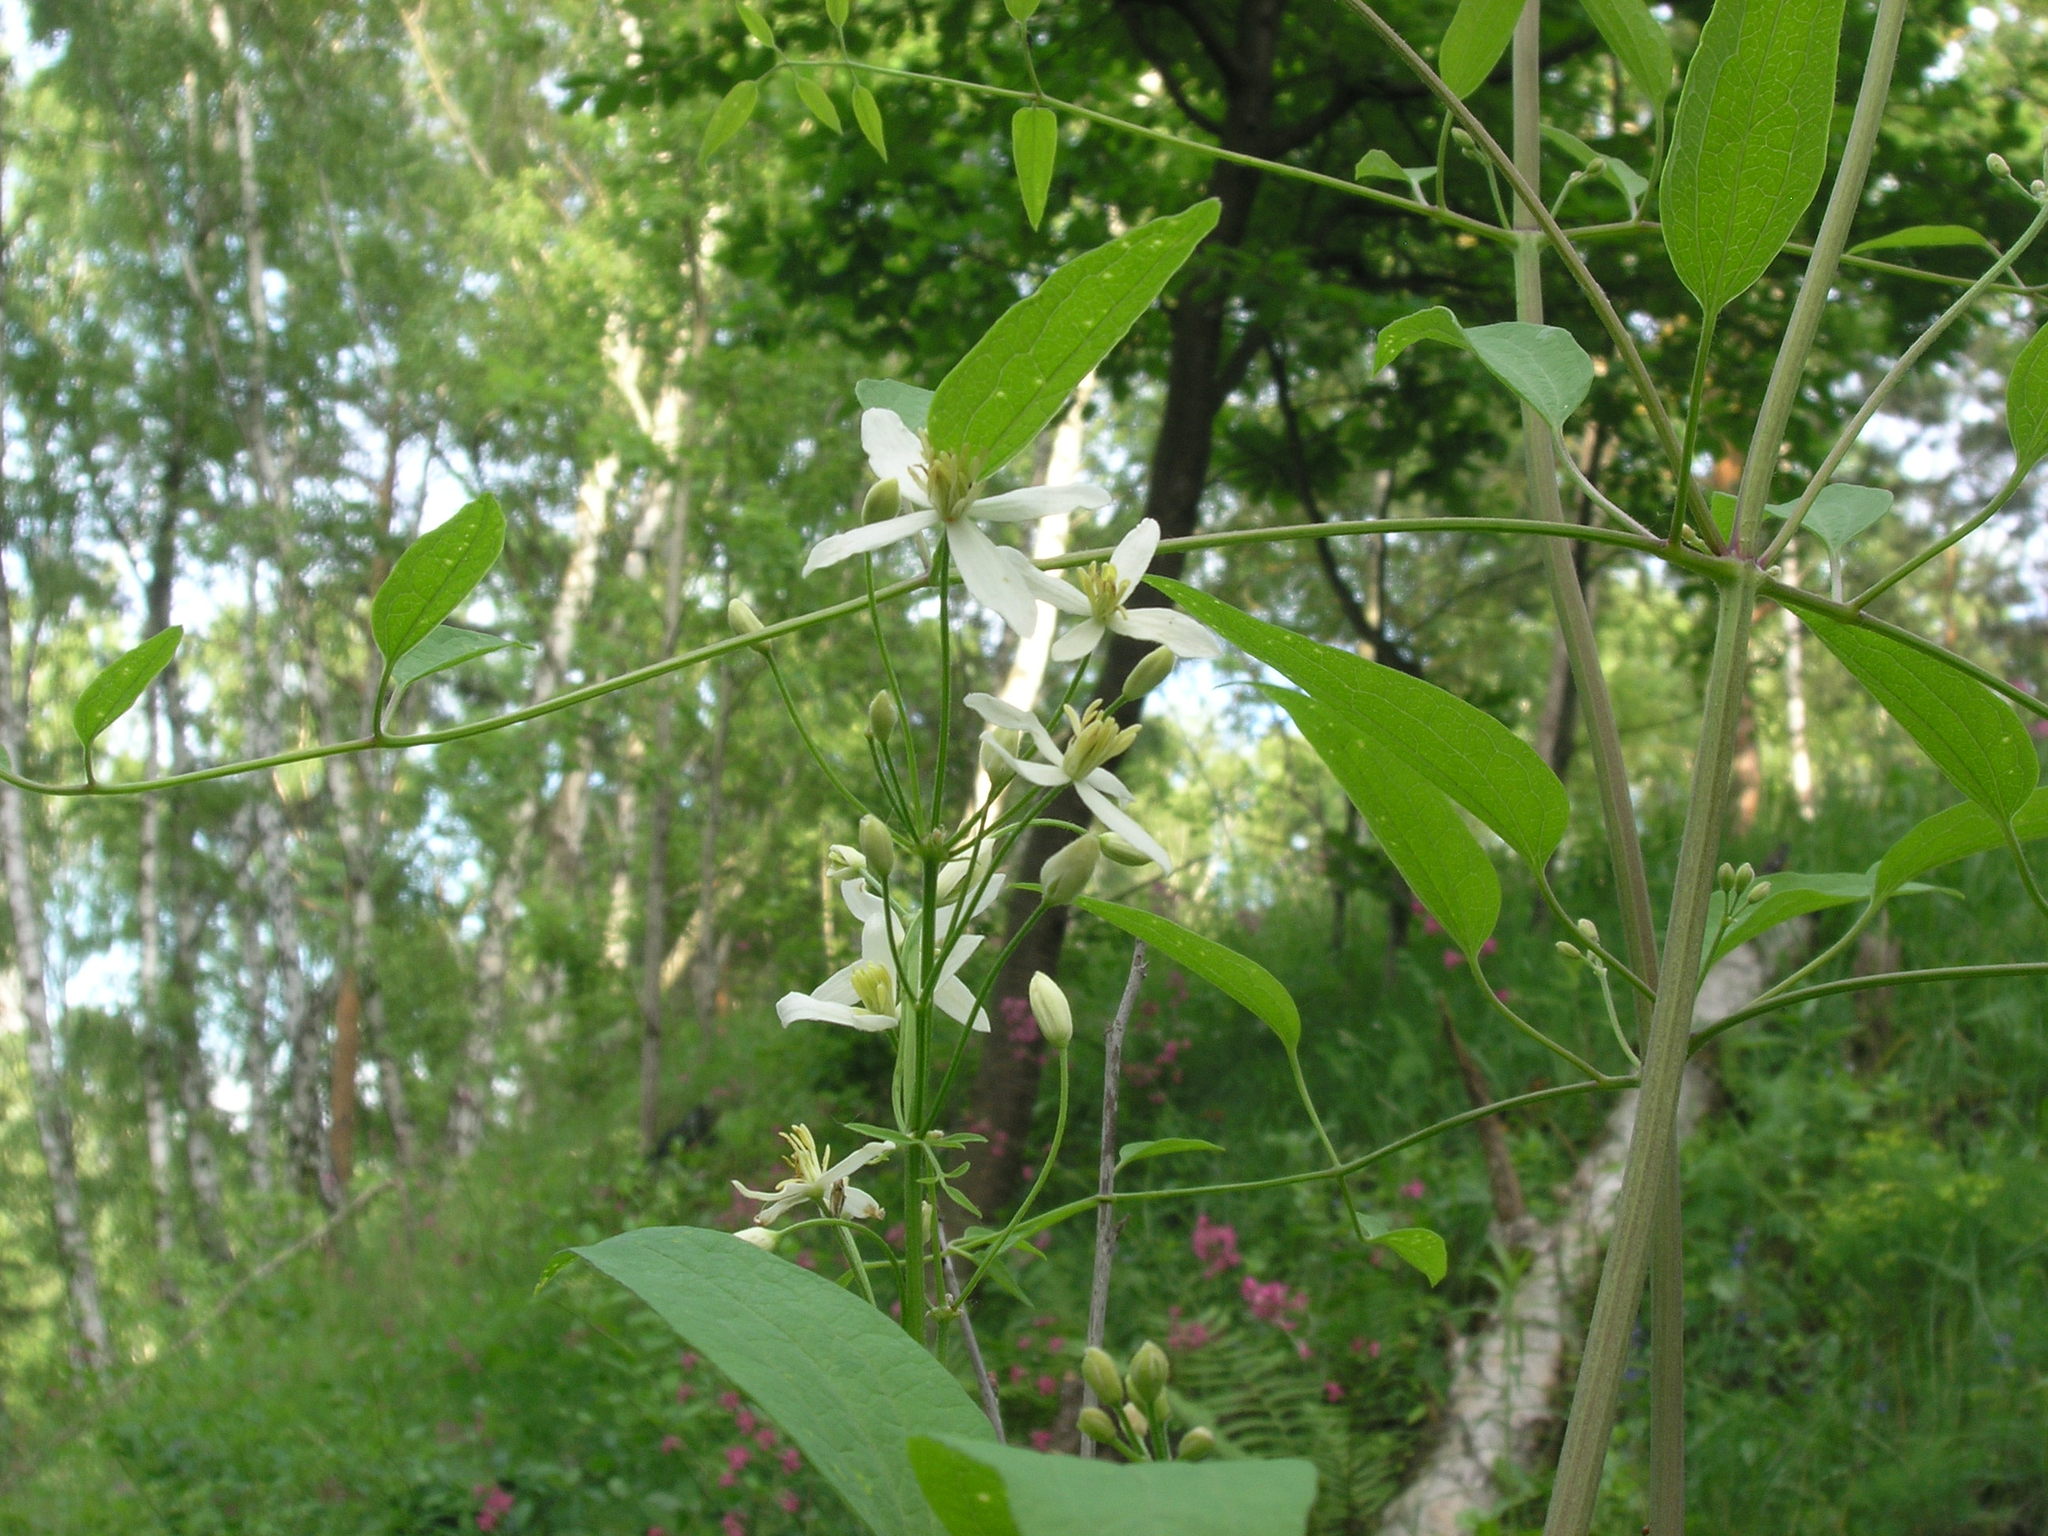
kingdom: Plantae
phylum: Tracheophyta
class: Magnoliopsida
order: Ranunculales
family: Ranunculaceae
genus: Clematis
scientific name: Clematis recta
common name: Ground clematis
